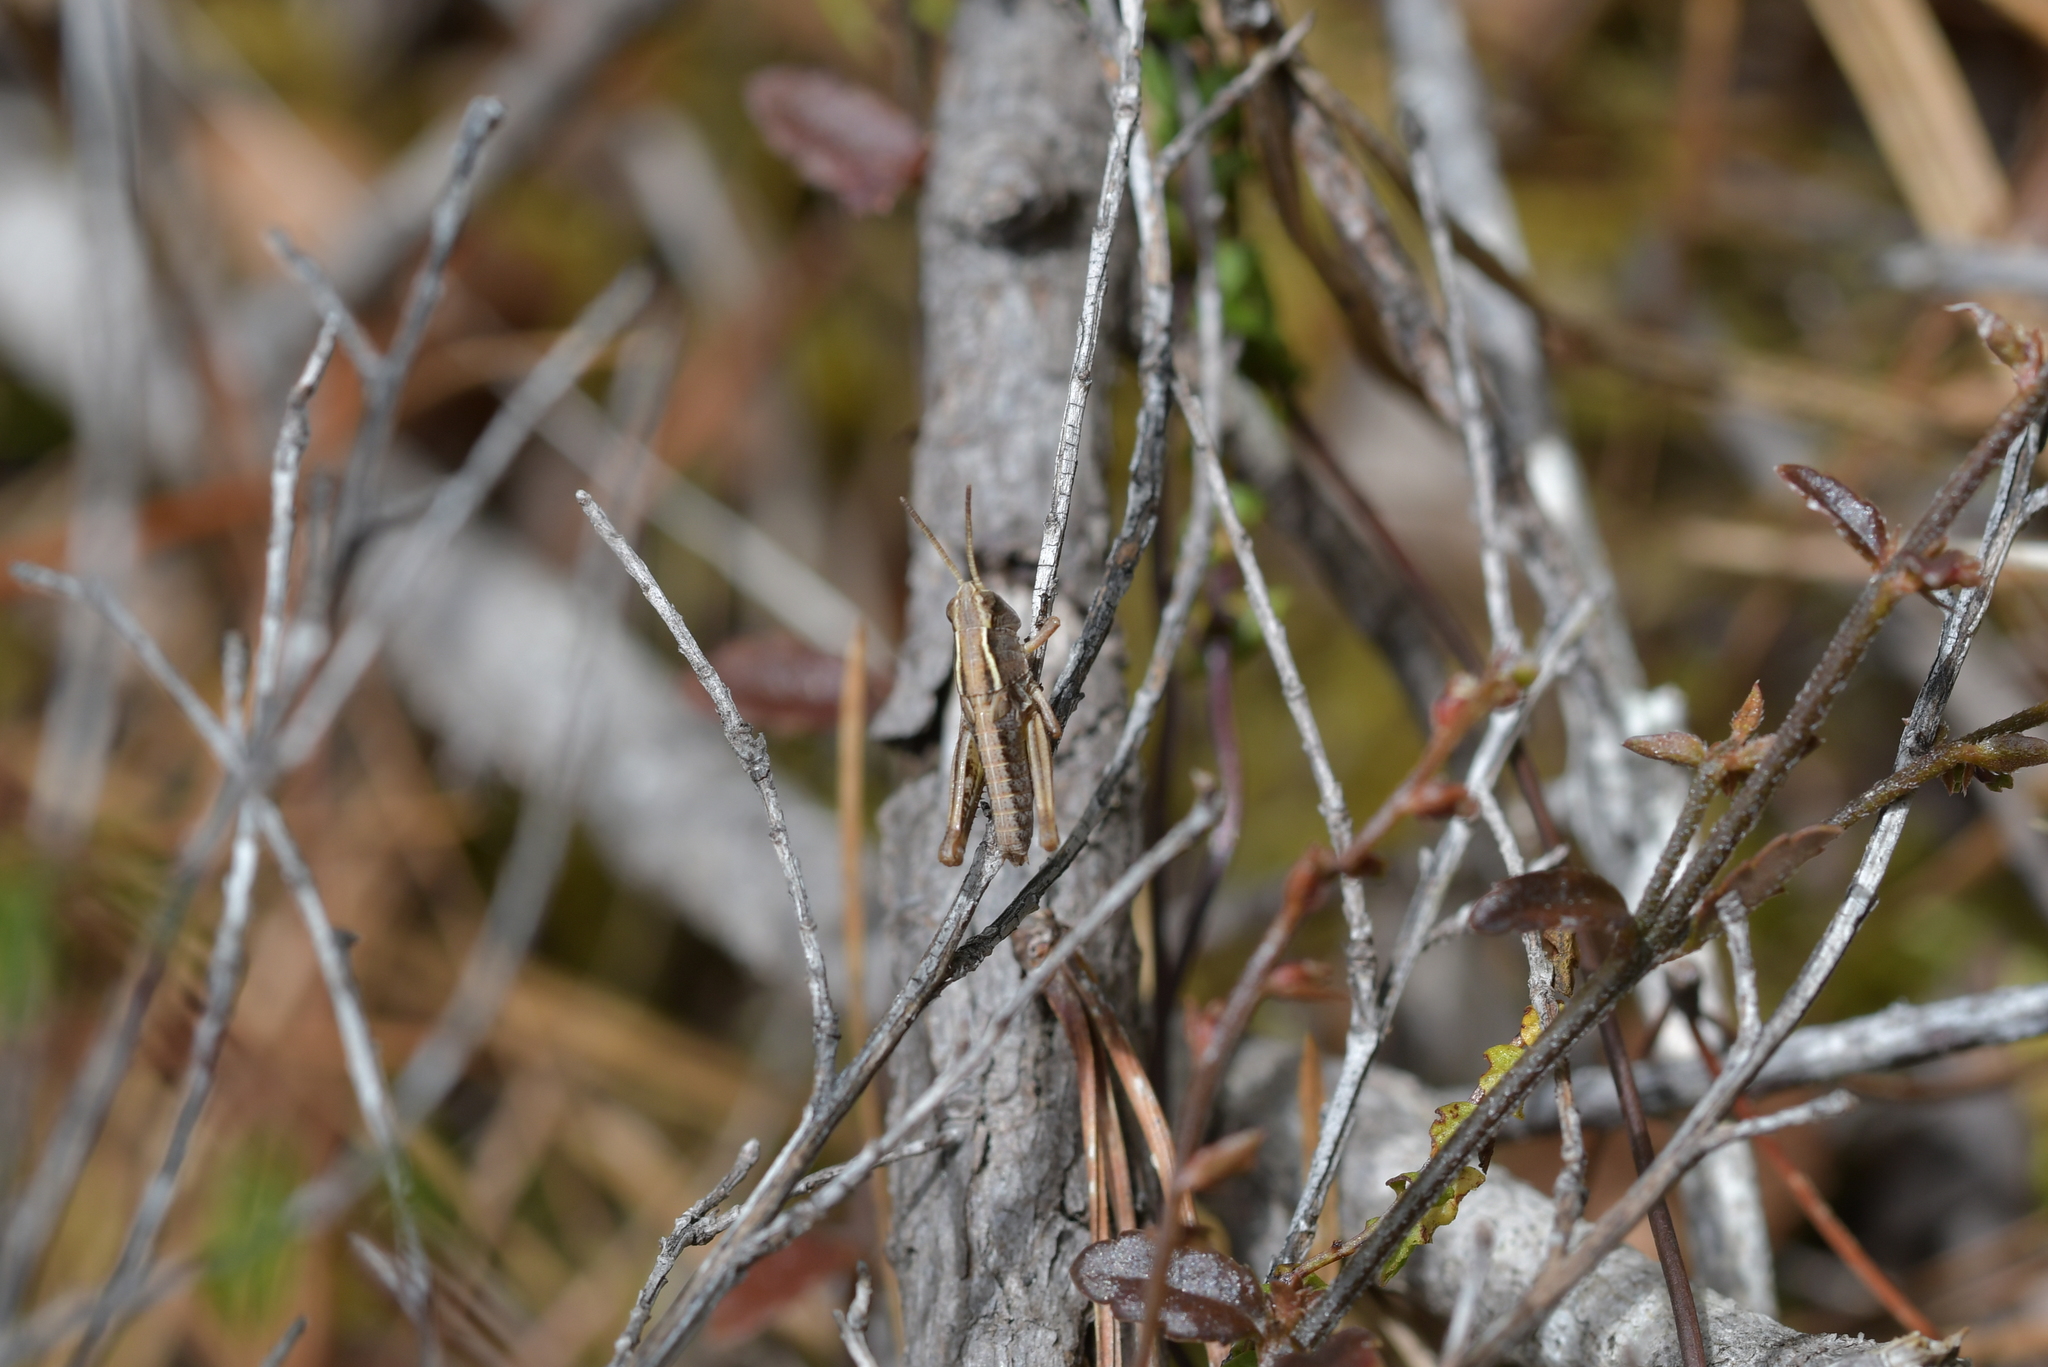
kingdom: Animalia
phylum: Arthropoda
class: Insecta
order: Orthoptera
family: Acrididae
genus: Phaulacridium
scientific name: Phaulacridium marginale
